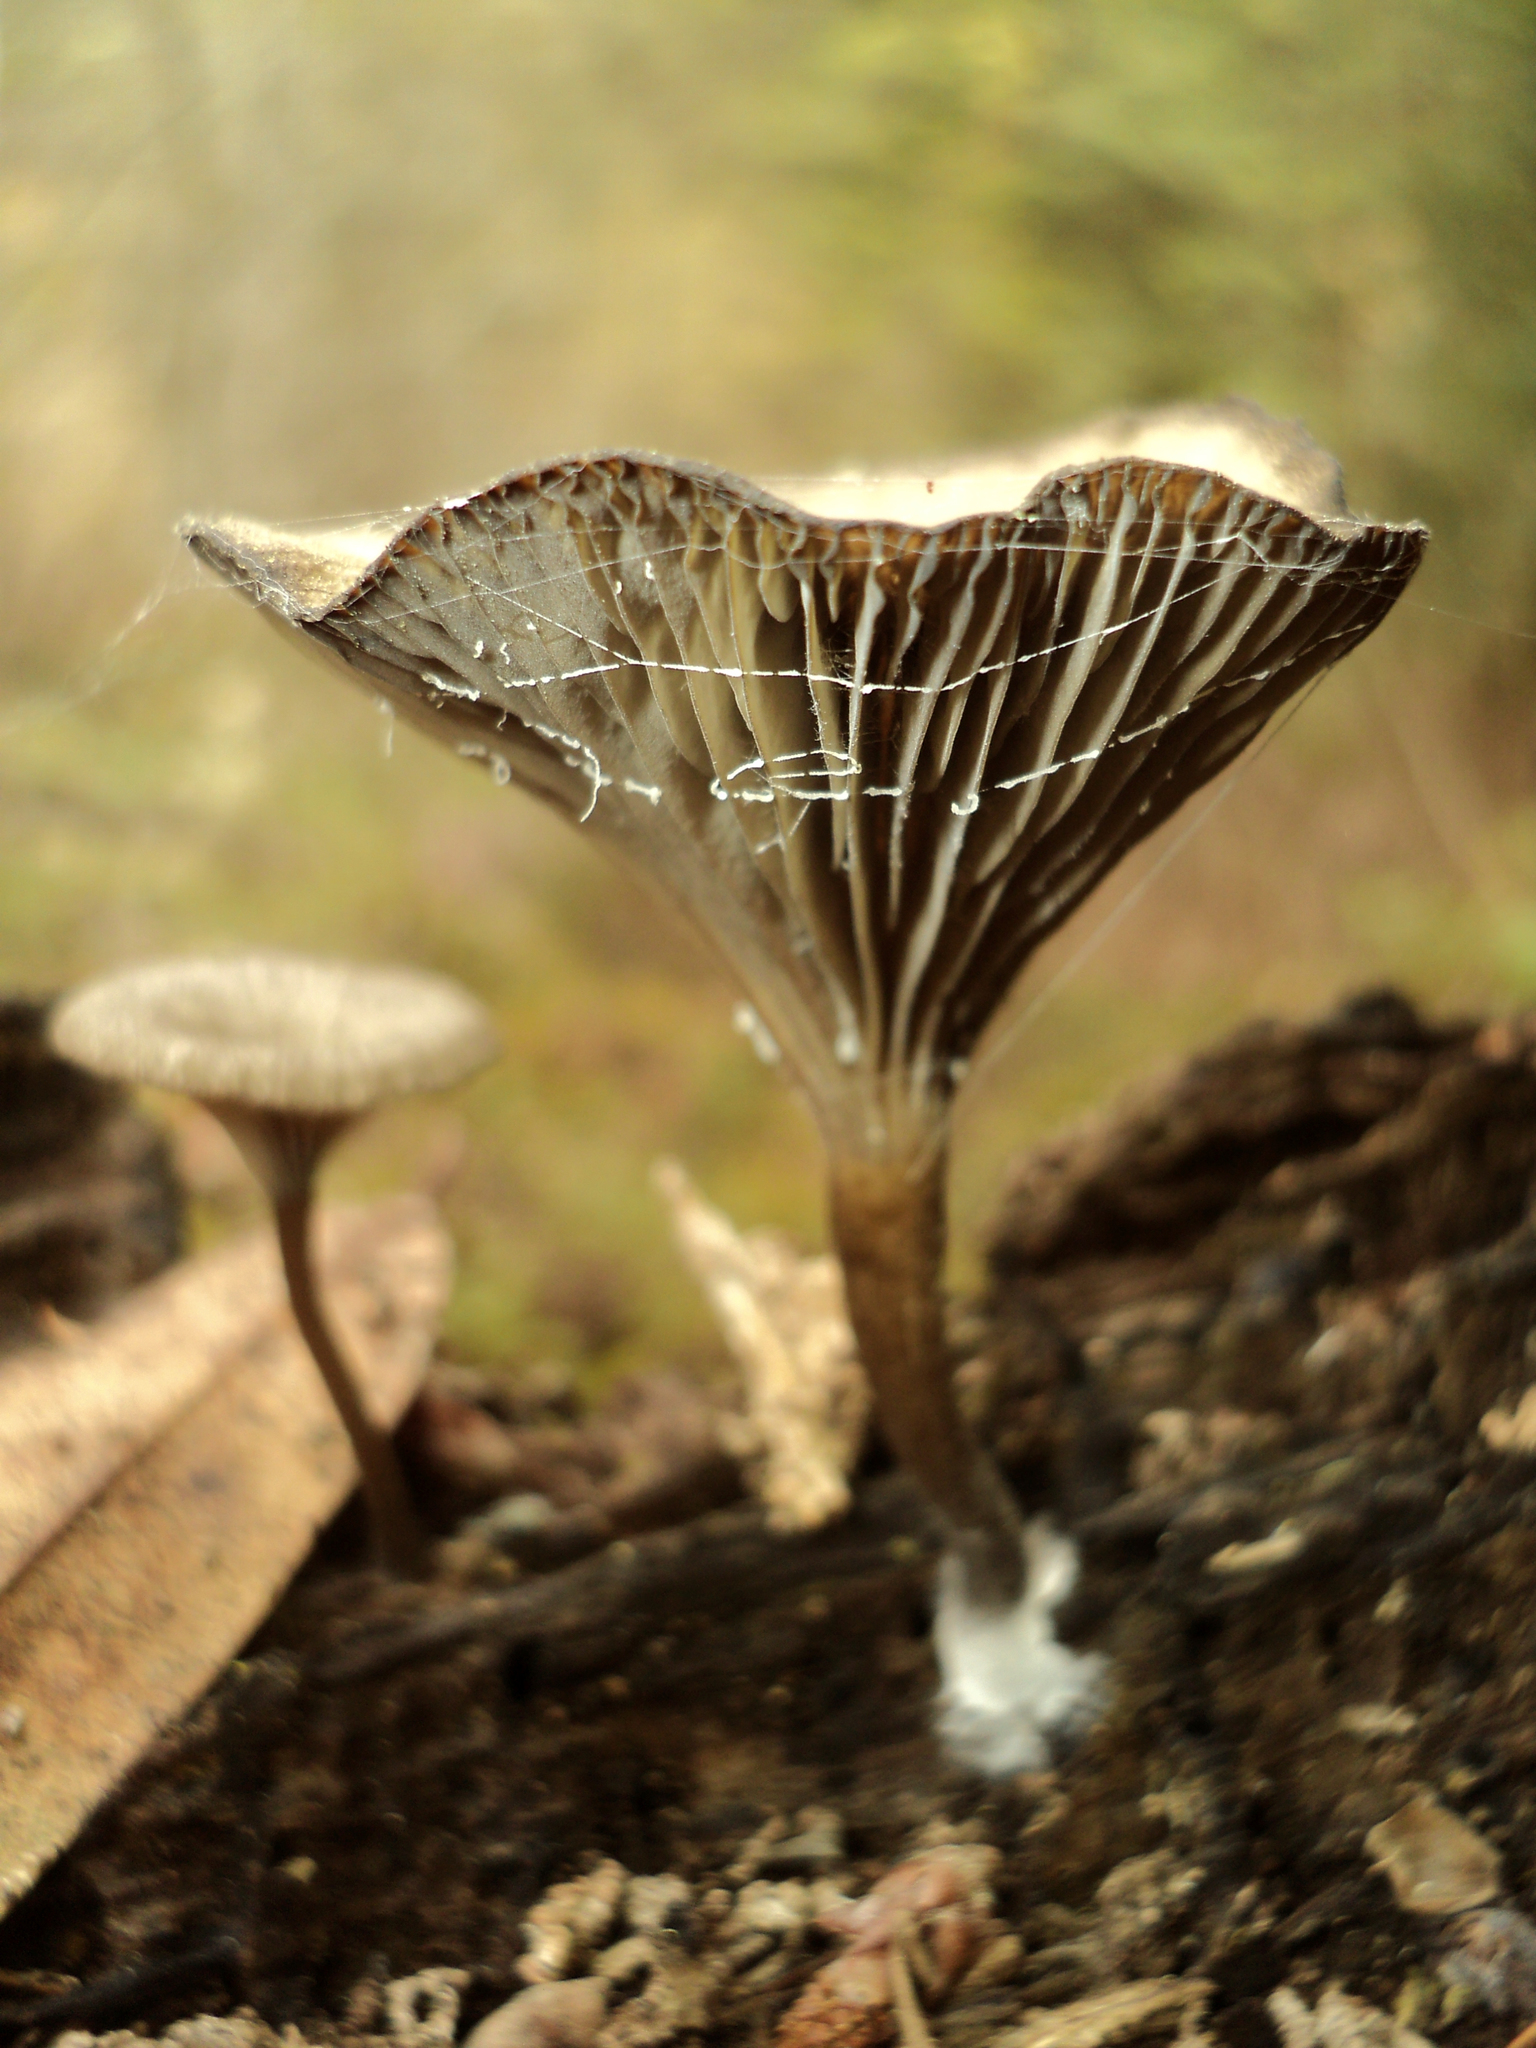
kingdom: Fungi
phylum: Basidiomycota
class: Agaricomycetes
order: Agaricales
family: Hygrophoraceae
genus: Arrhenia
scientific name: Arrhenia epichysium
